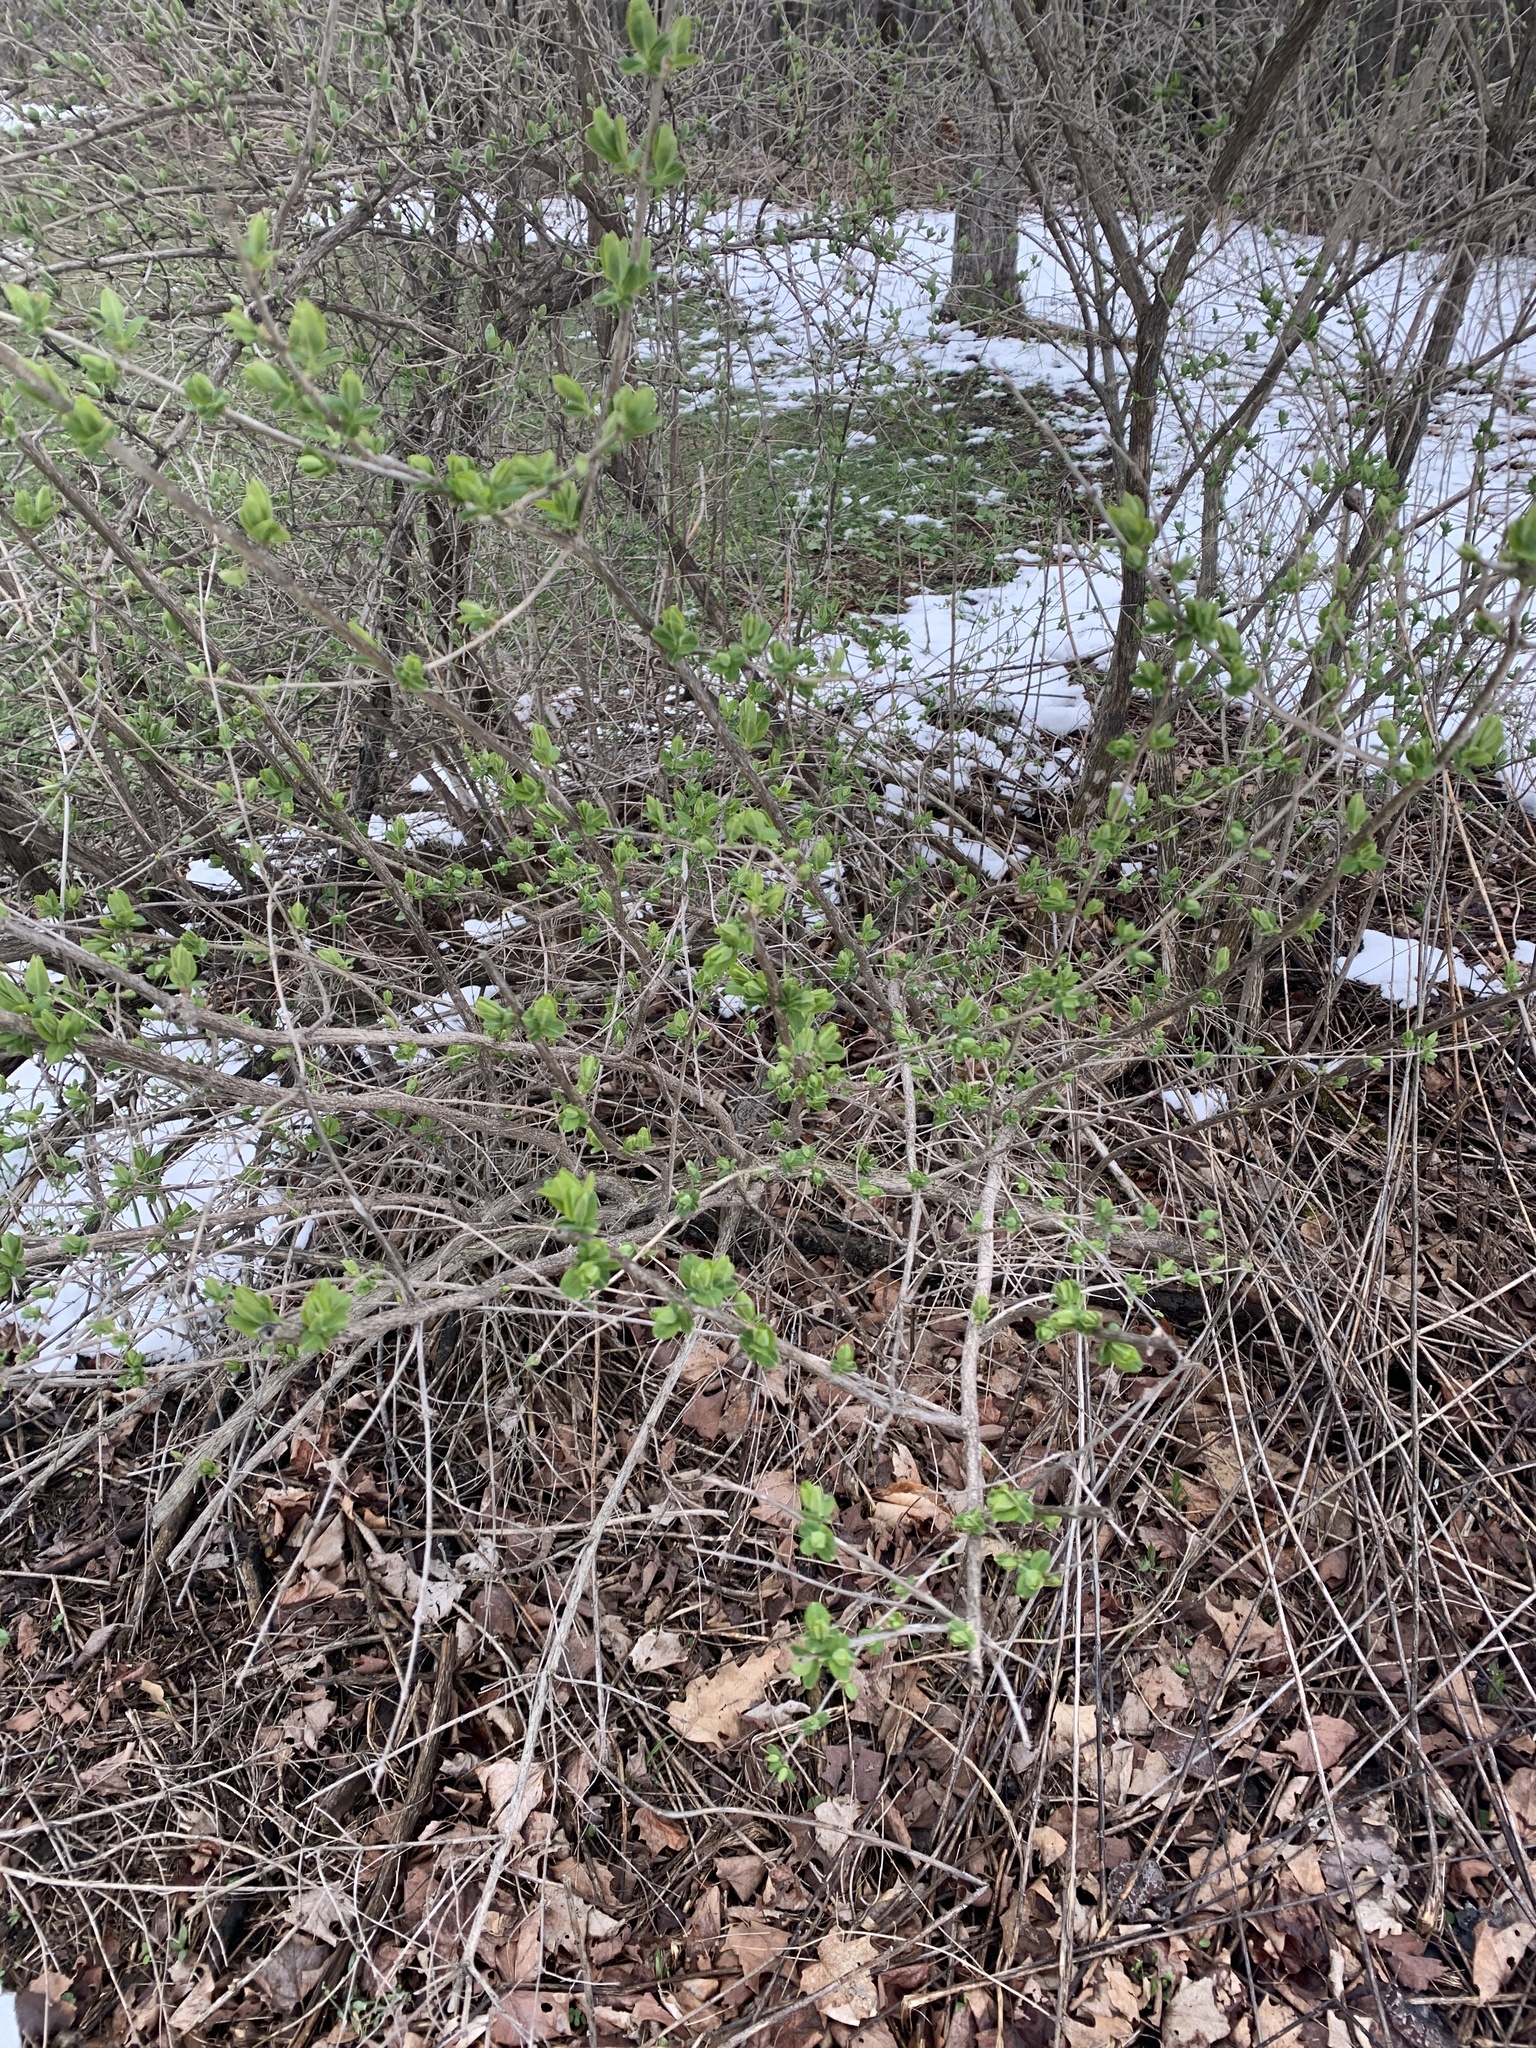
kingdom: Plantae
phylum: Tracheophyta
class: Magnoliopsida
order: Dipsacales
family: Caprifoliaceae
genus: Lonicera
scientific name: Lonicera
